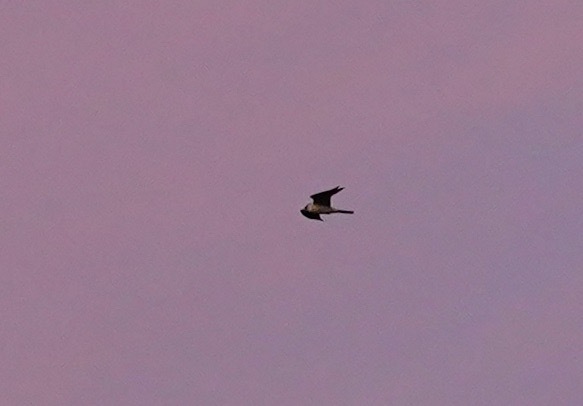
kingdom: Animalia
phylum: Chordata
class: Aves
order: Accipitriformes
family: Accipitridae
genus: Elanus
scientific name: Elanus leucurus
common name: White-tailed kite
